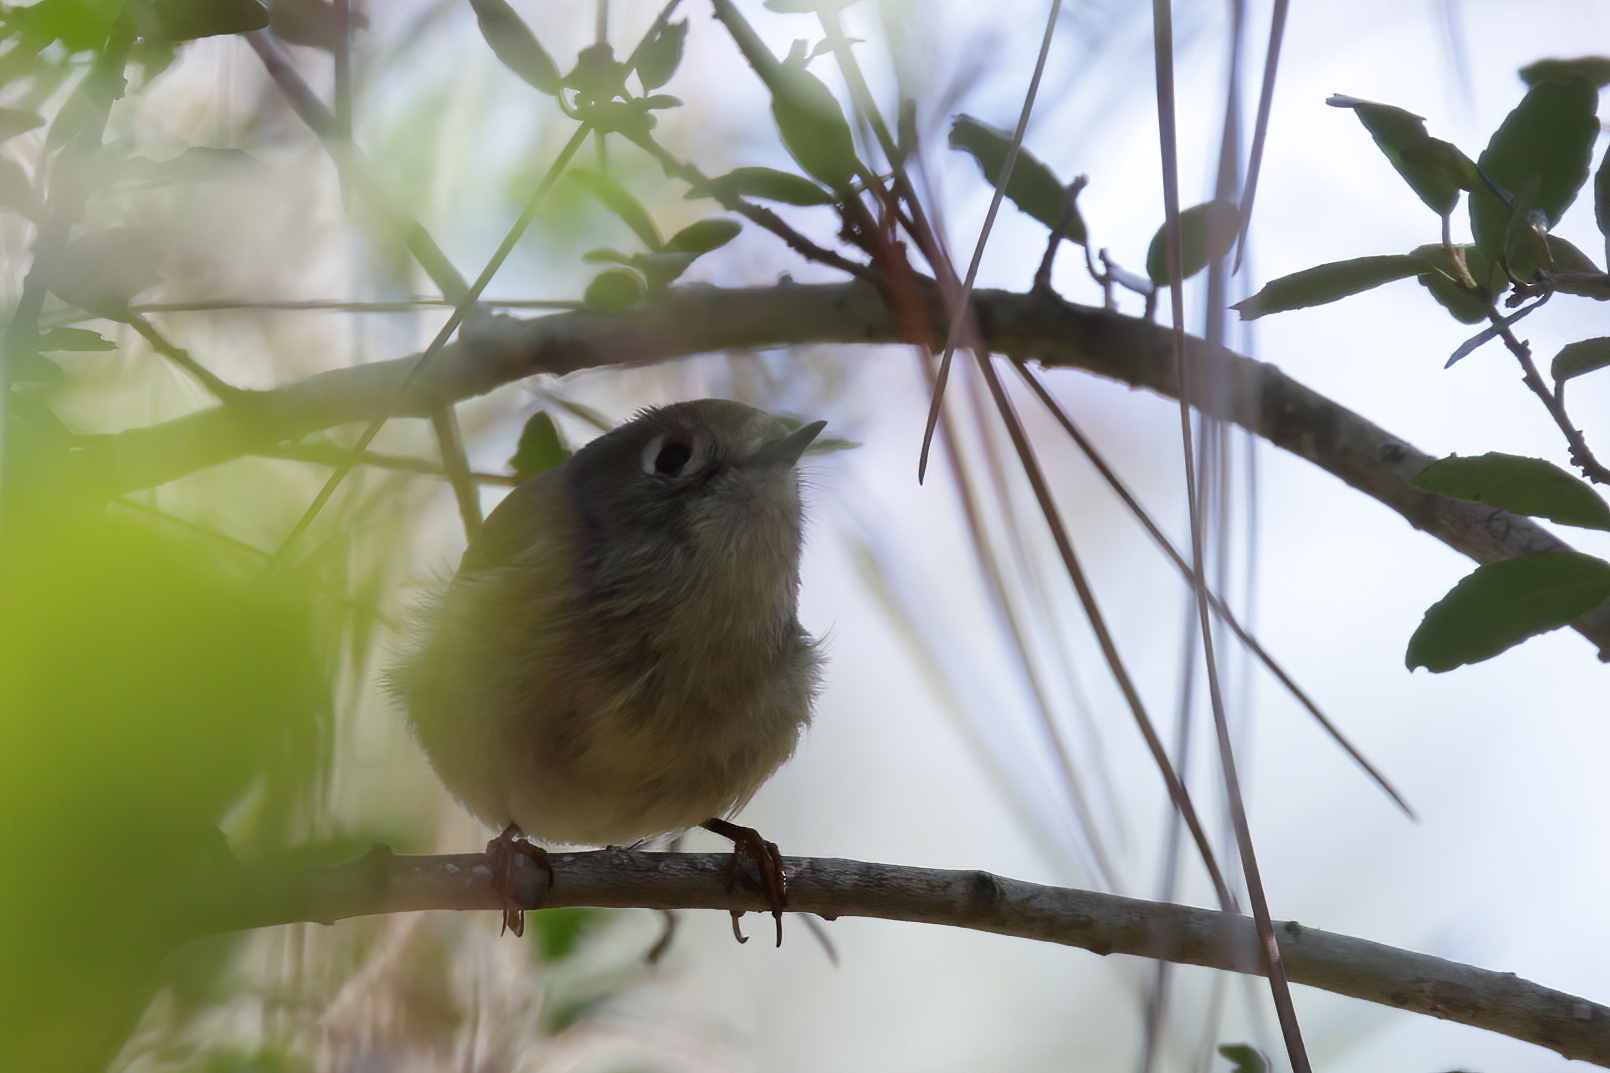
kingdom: Animalia
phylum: Chordata
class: Aves
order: Passeriformes
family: Regulidae
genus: Regulus
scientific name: Regulus calendula
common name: Ruby-crowned kinglet
